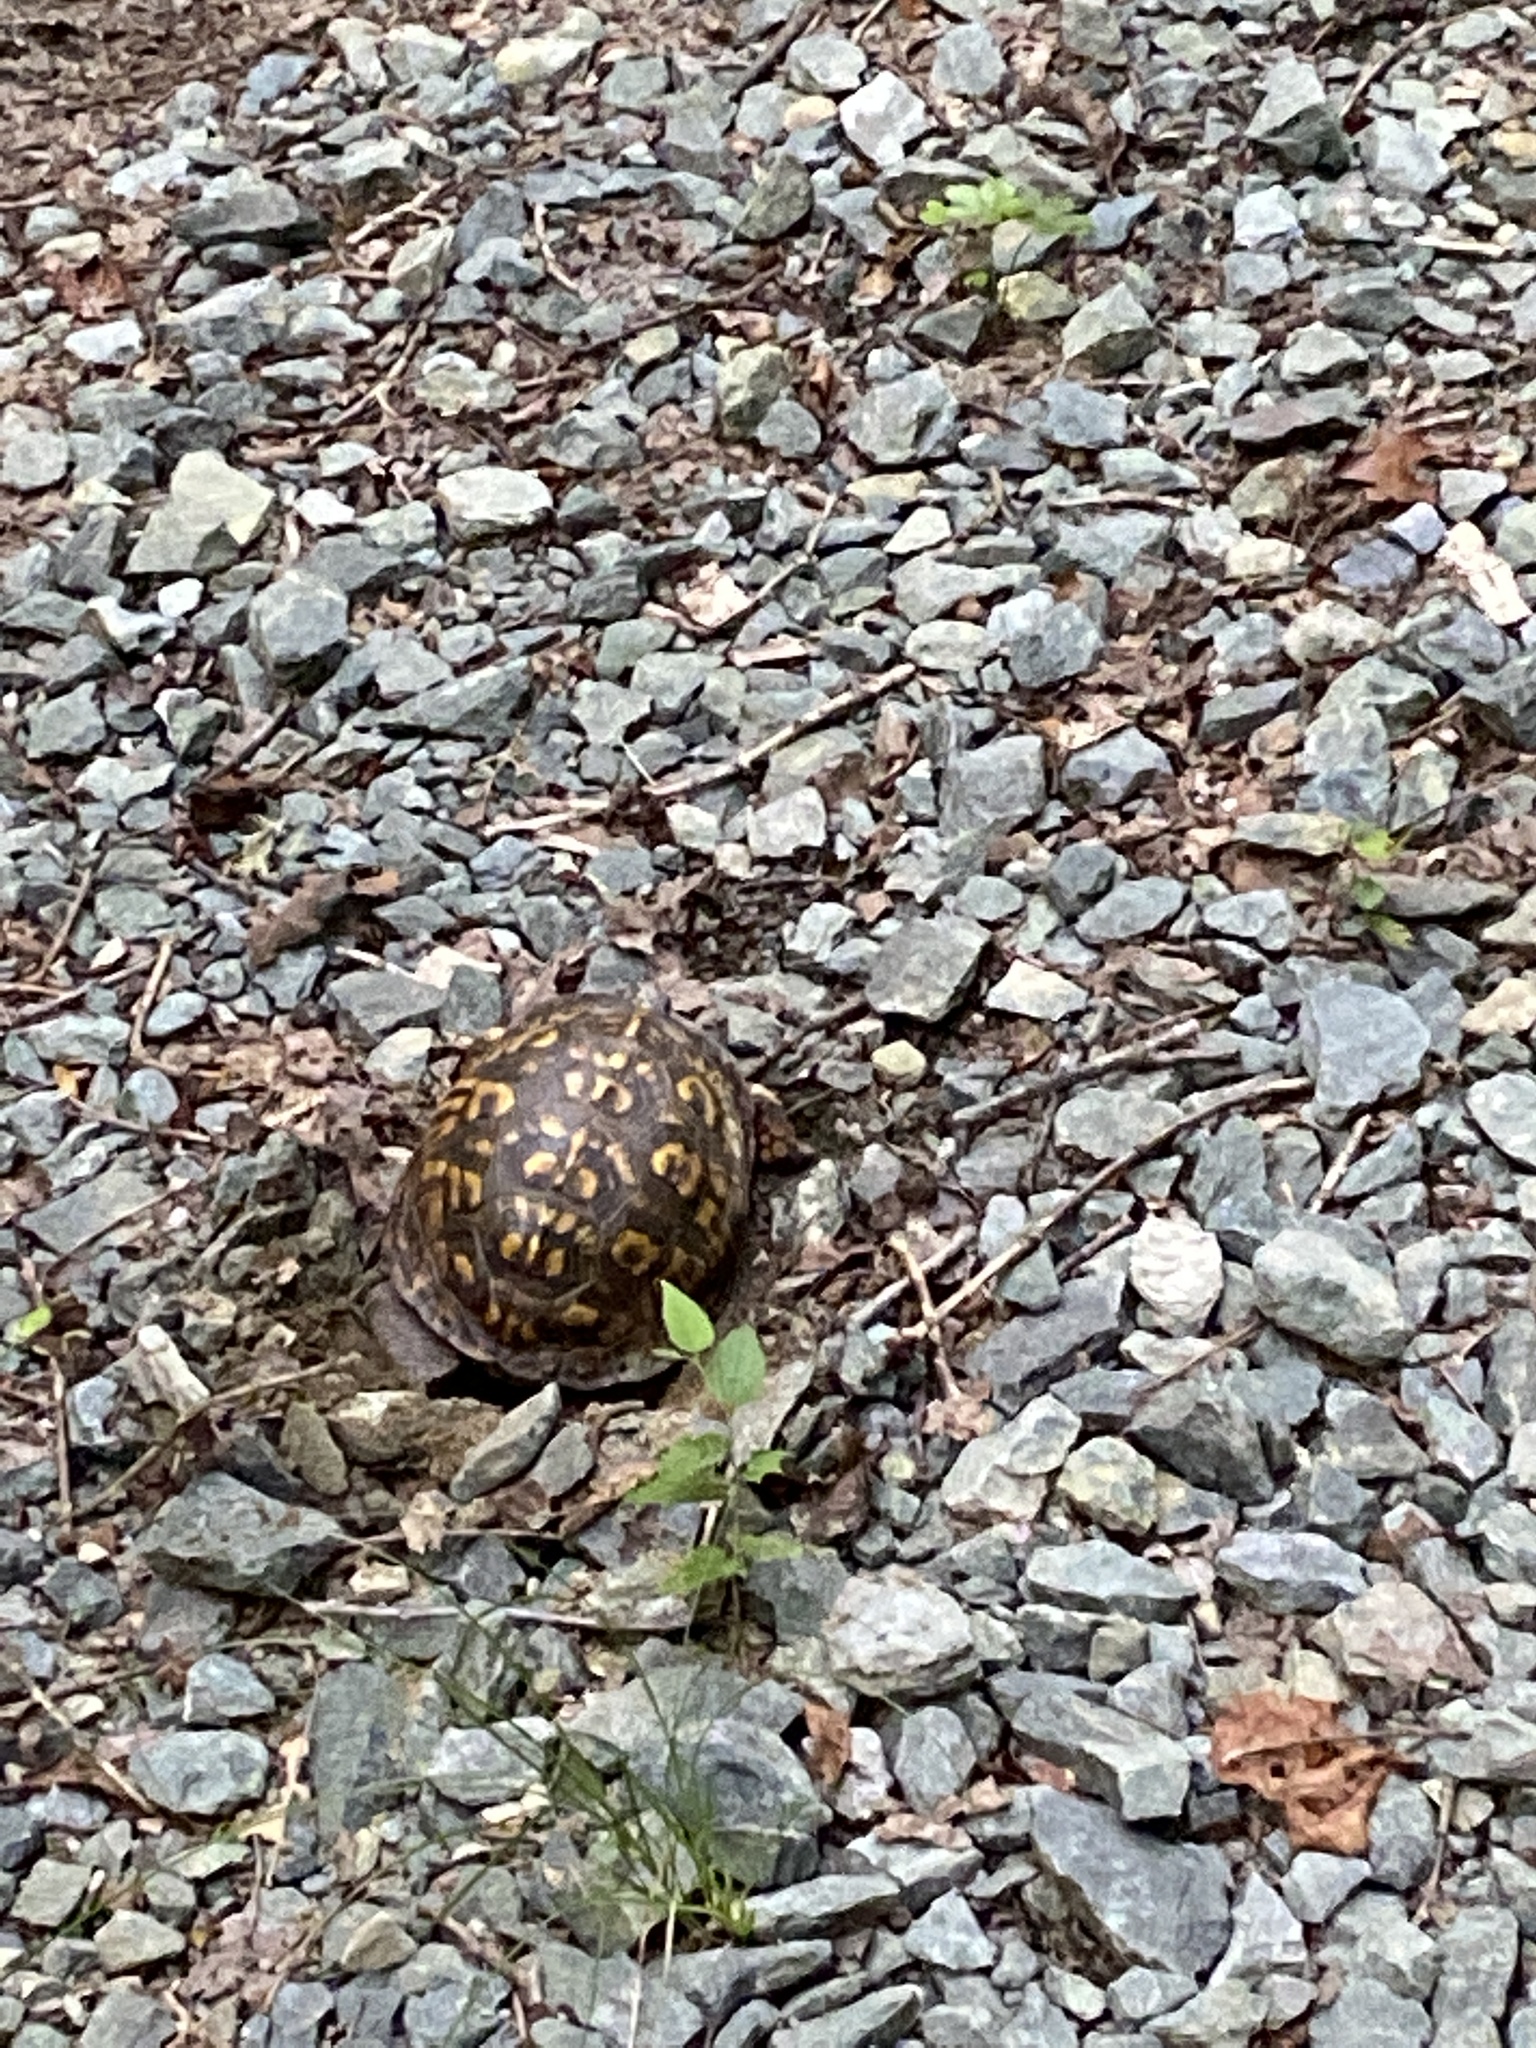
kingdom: Animalia
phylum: Chordata
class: Testudines
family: Emydidae
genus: Terrapene
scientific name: Terrapene carolina
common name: Common box turtle
